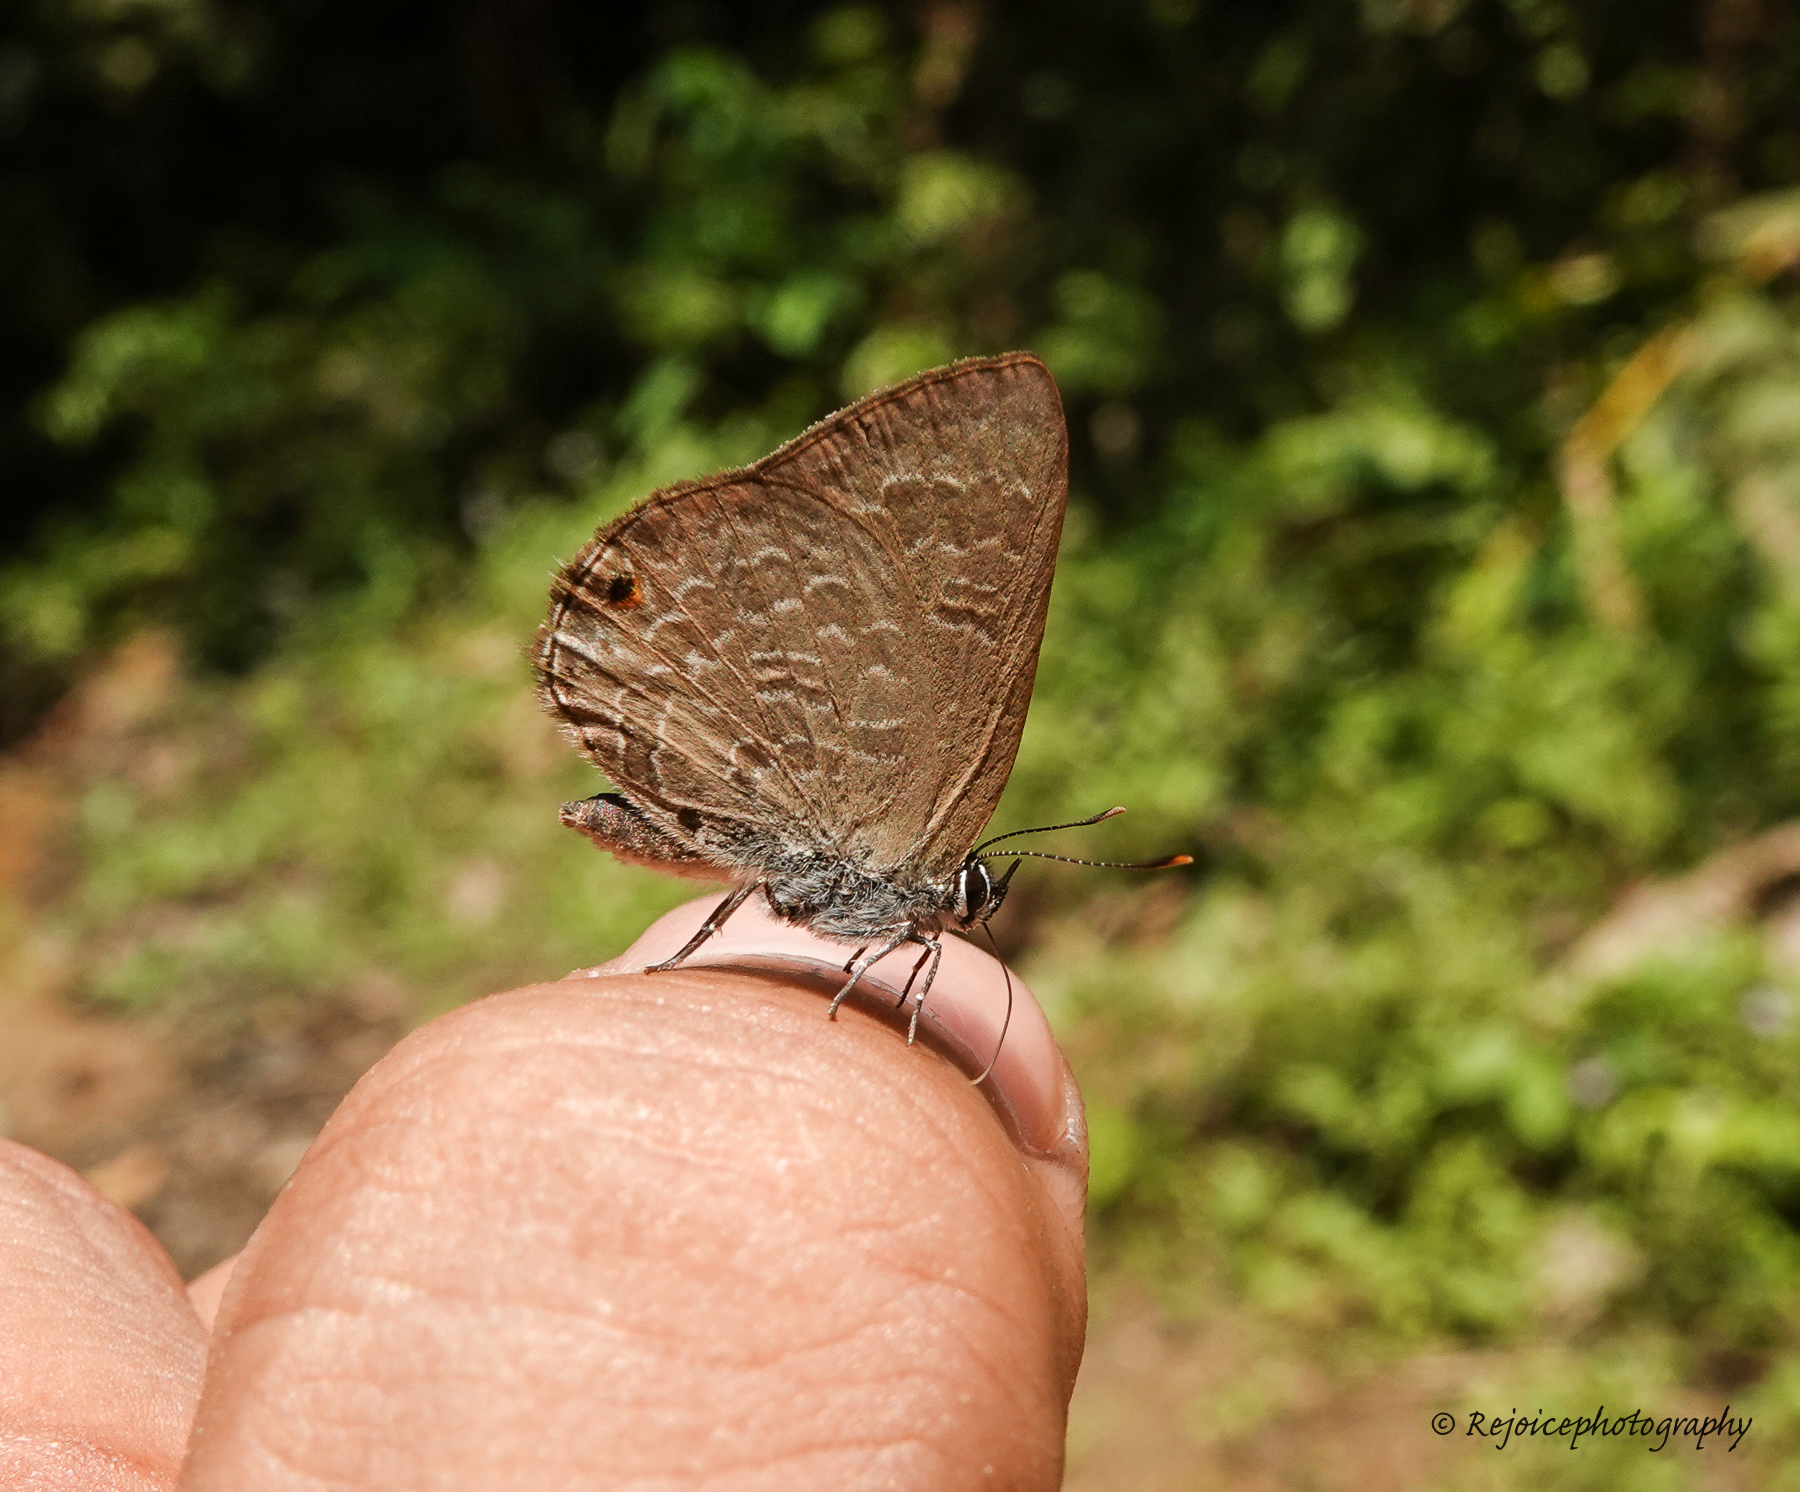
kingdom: Animalia
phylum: Arthropoda
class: Insecta
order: Lepidoptera
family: Lycaenidae
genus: Anthene
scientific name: Anthene emolus
